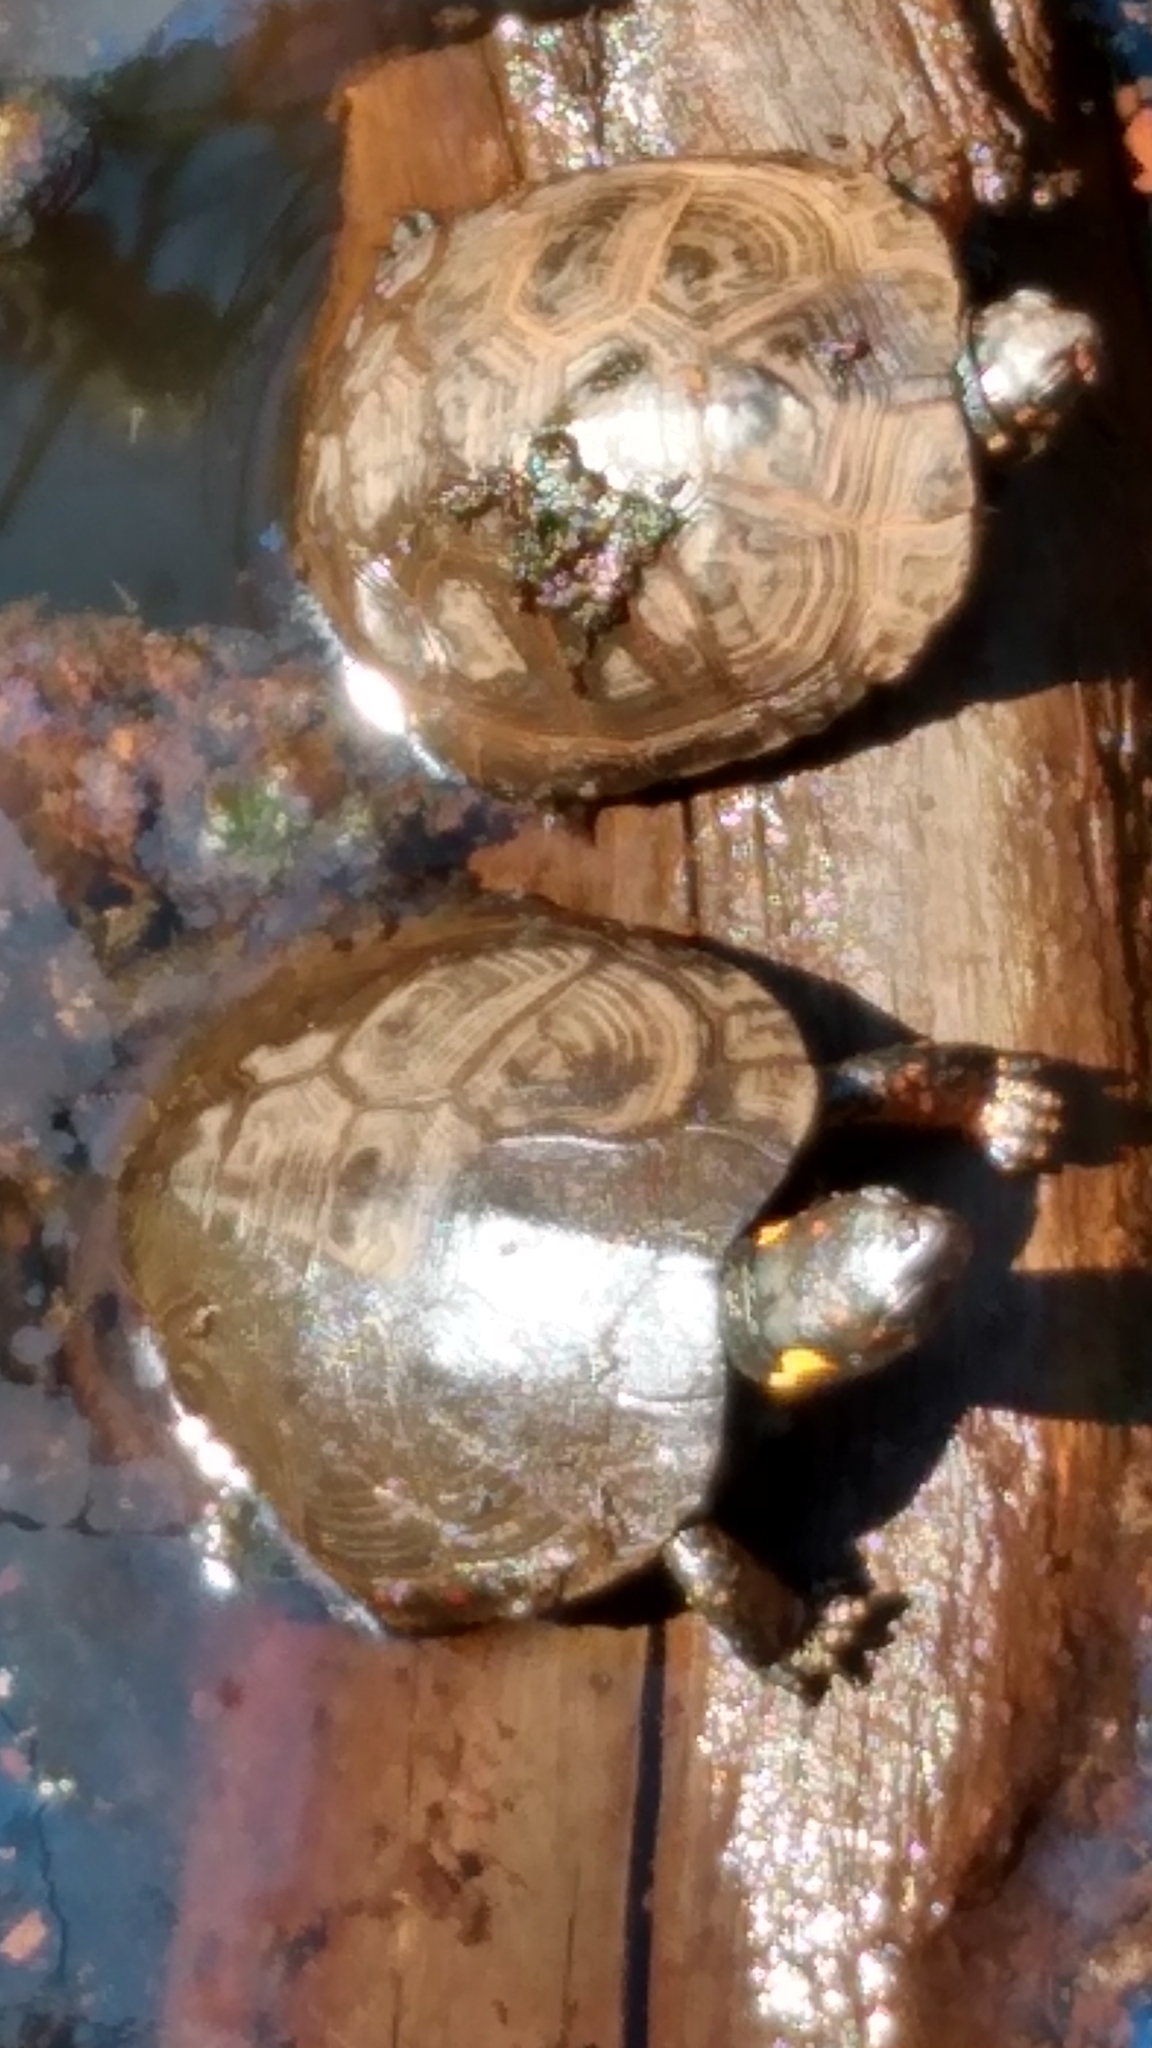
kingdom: Animalia
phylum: Chordata
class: Testudines
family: Emydidae
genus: Clemmys
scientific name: Clemmys guttata
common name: Spotted turtle
